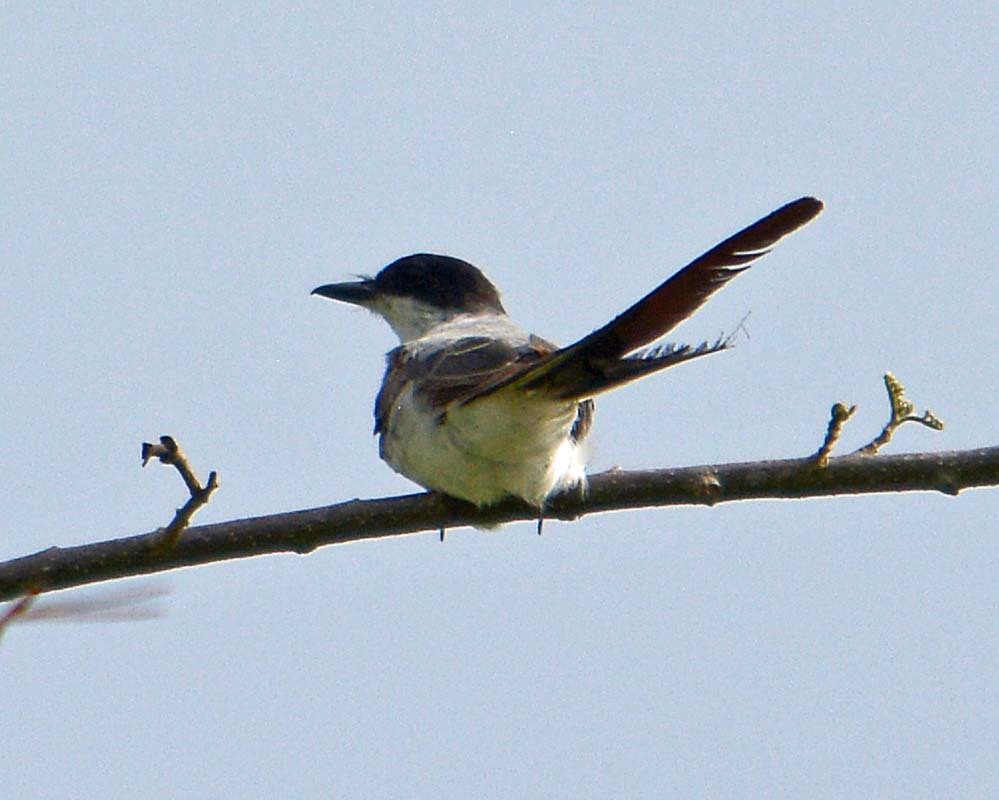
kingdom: Animalia
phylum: Chordata
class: Aves
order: Passeriformes
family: Tyrannidae
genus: Tyrannus
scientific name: Tyrannus savana
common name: Fork-tailed flycatcher
